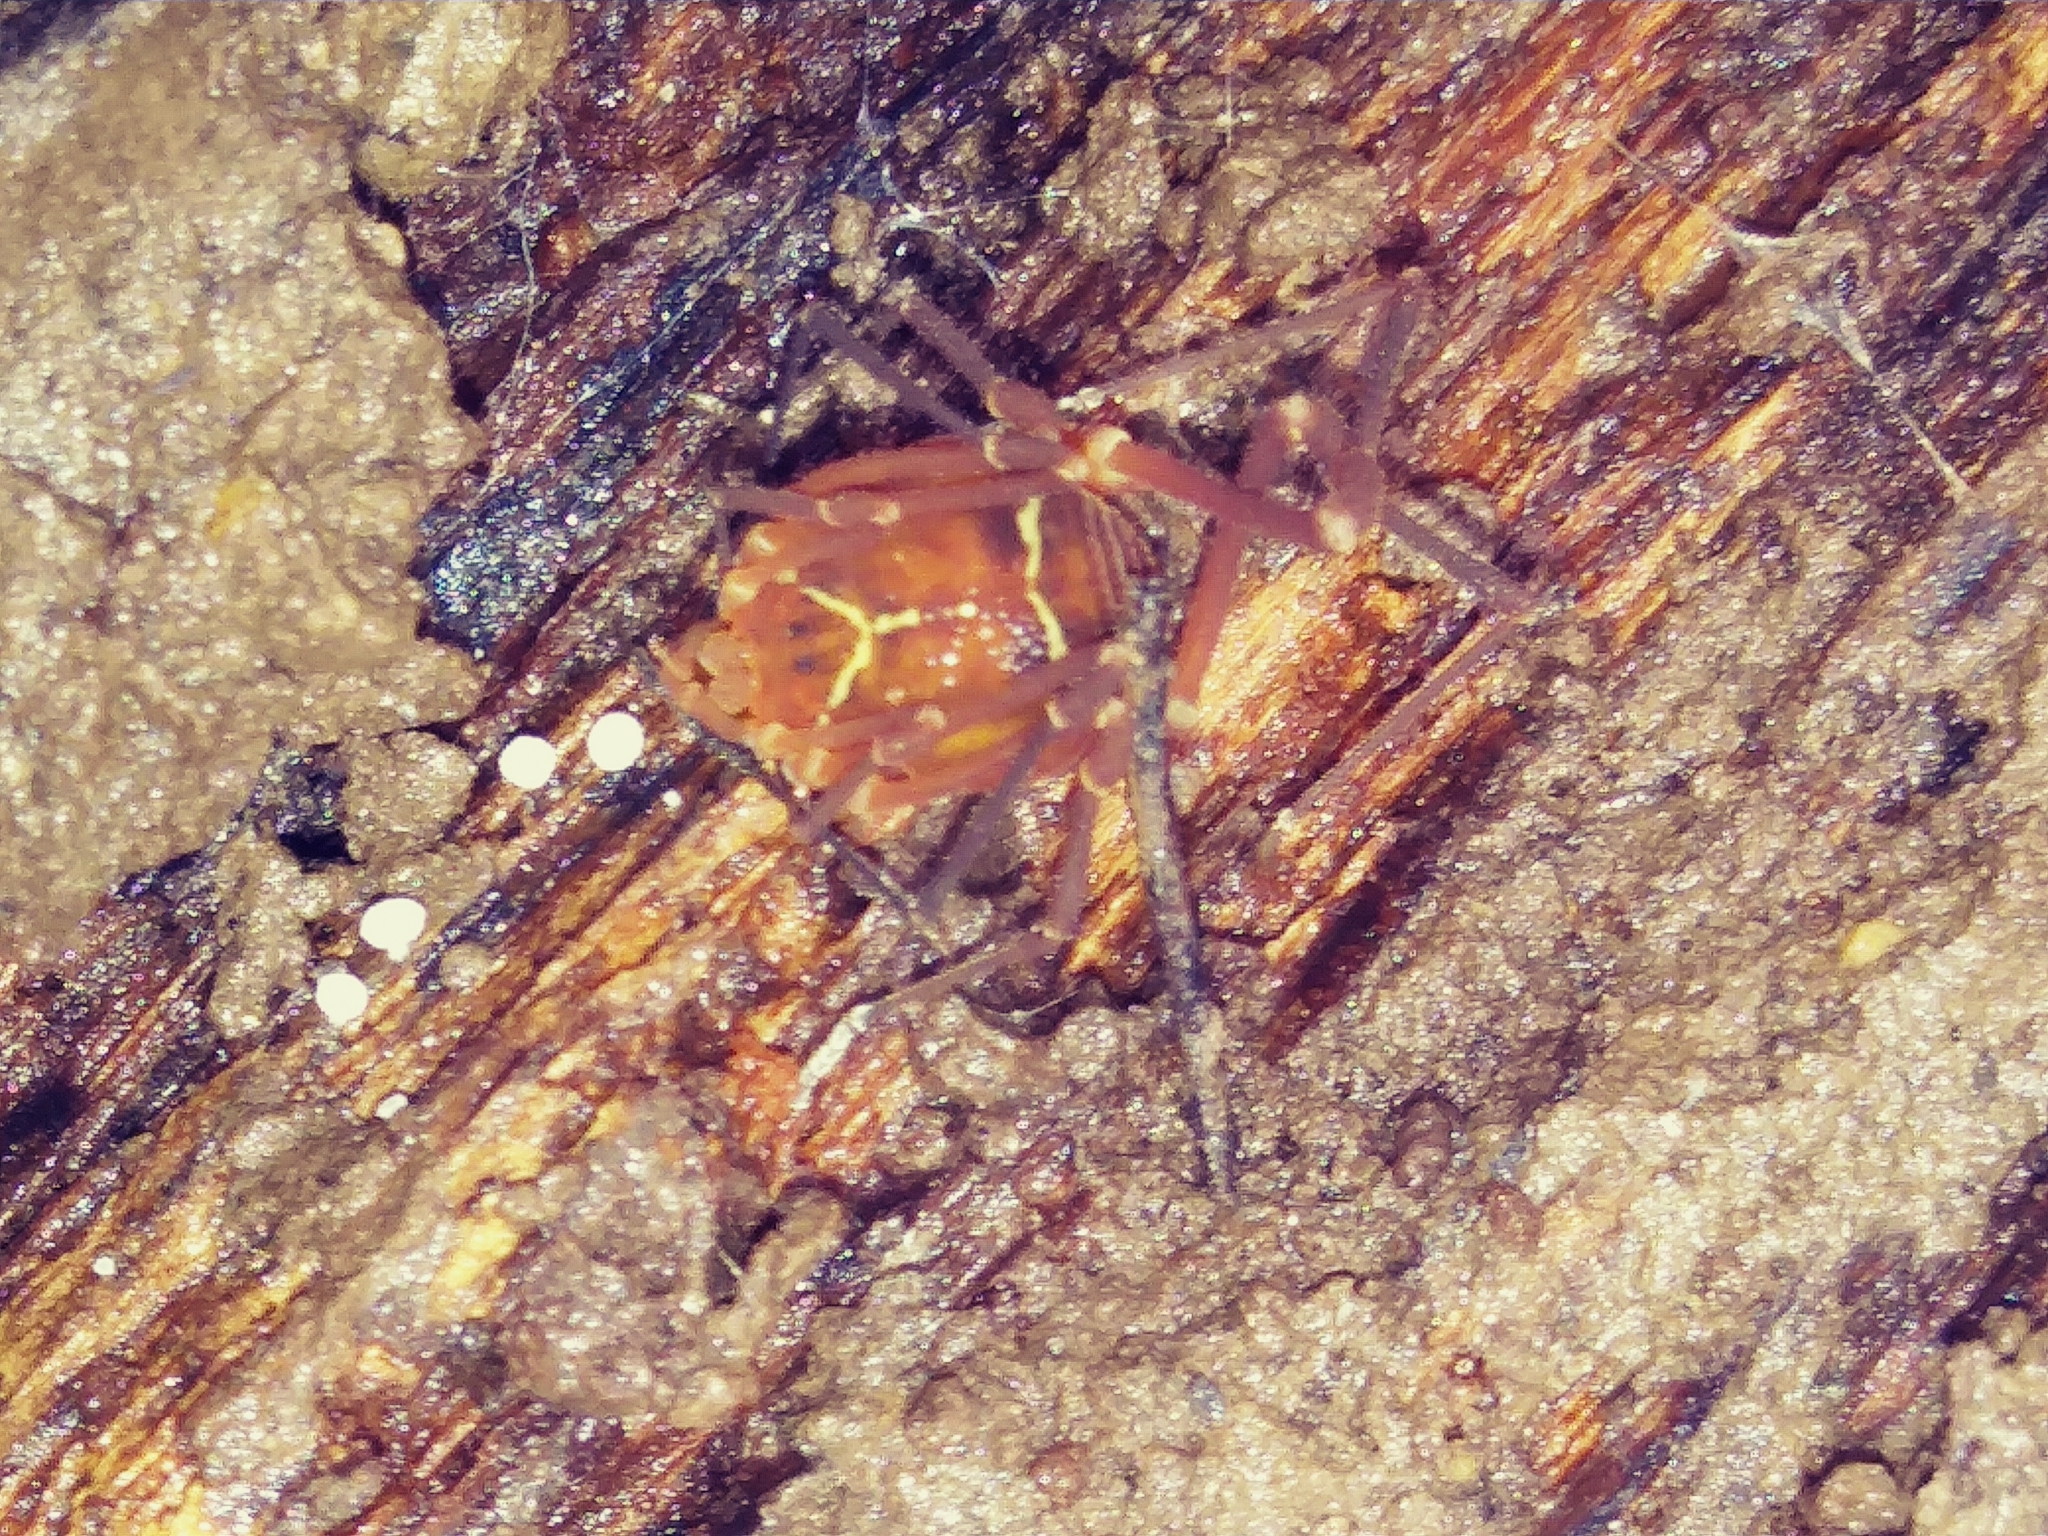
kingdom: Animalia
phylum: Arthropoda
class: Arachnida
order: Opiliones
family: Cosmetidae
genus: Libitioides
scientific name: Libitioides sayi
